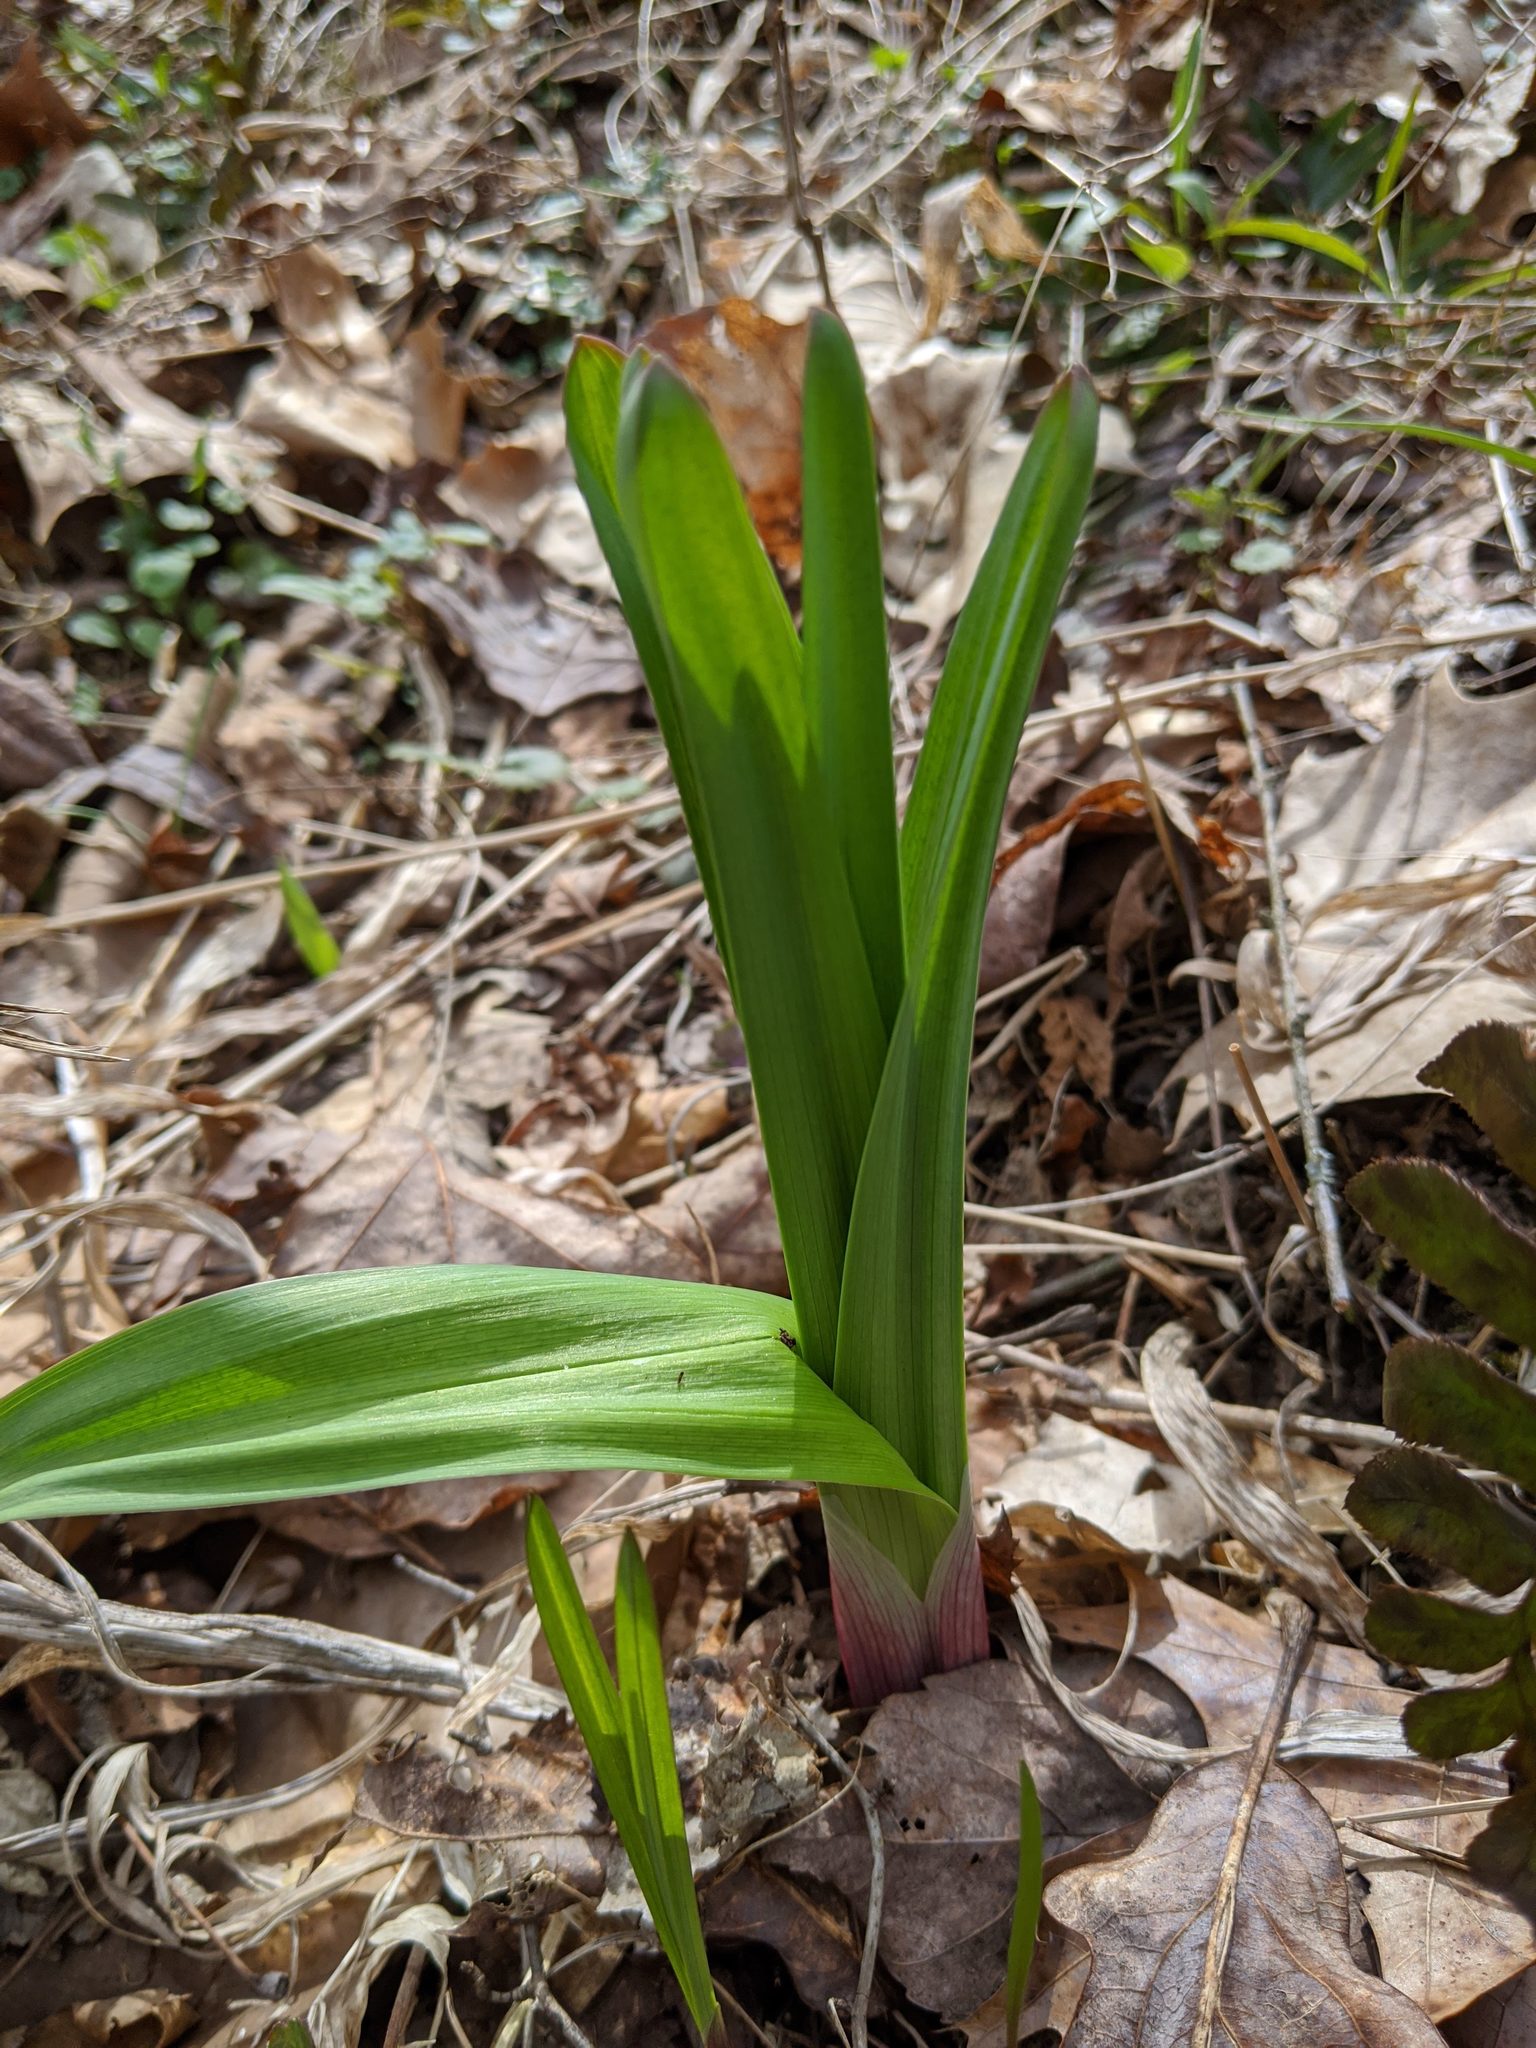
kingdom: Plantae
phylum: Tracheophyta
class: Liliopsida
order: Liliales
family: Melanthiaceae
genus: Stenanthium
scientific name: Stenanthium gramineum
